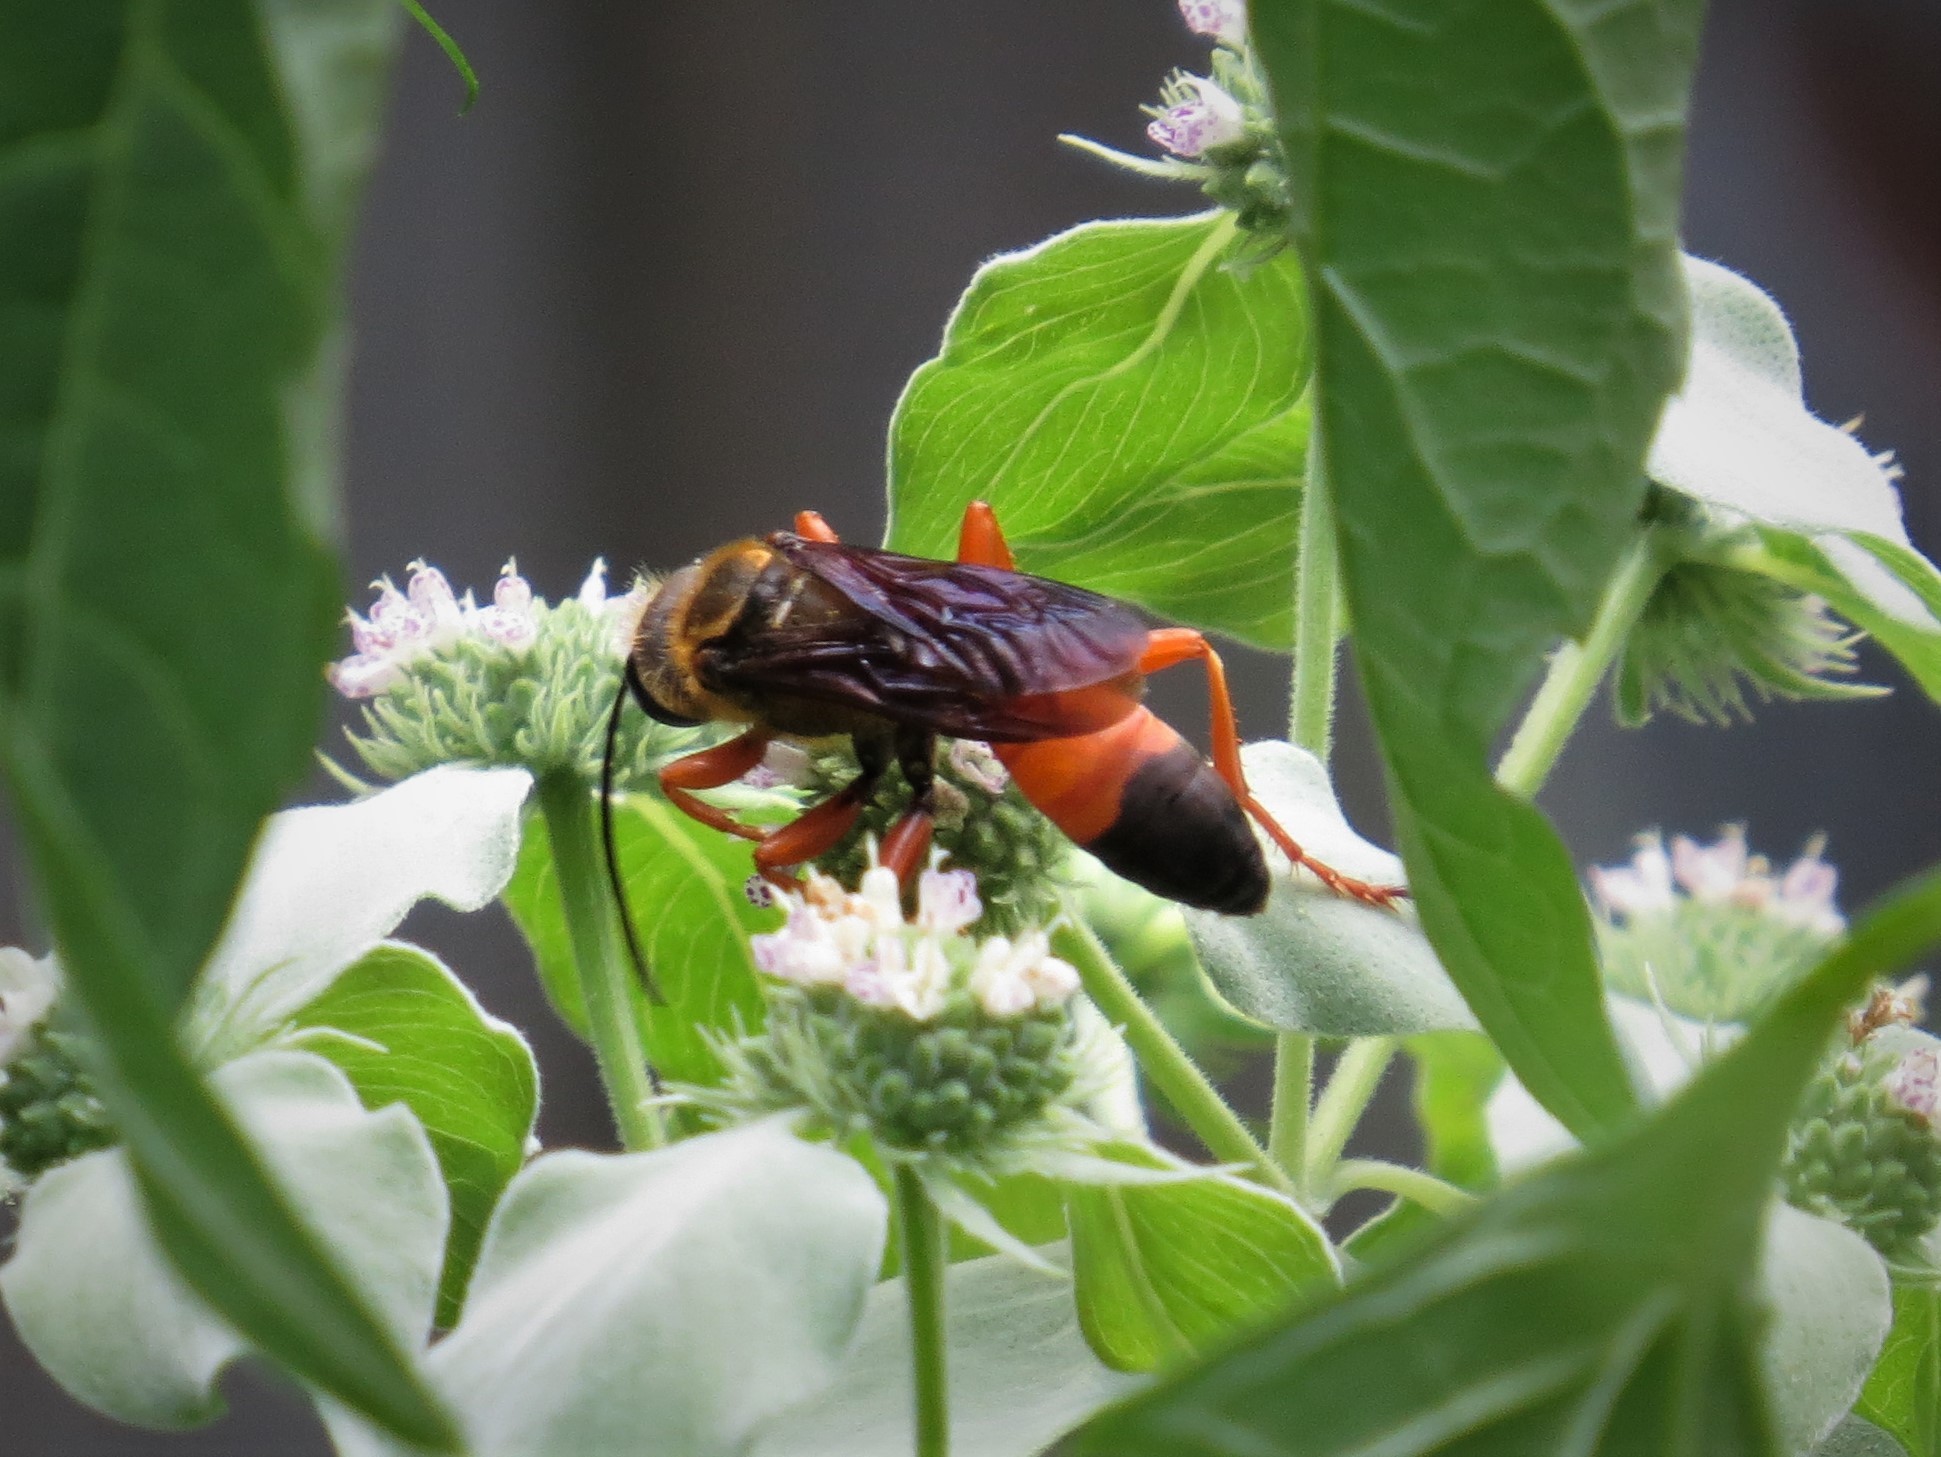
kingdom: Animalia
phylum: Arthropoda
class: Insecta
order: Hymenoptera
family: Sphecidae
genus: Sphex
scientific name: Sphex ichneumoneus
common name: Great golden digger wasp
